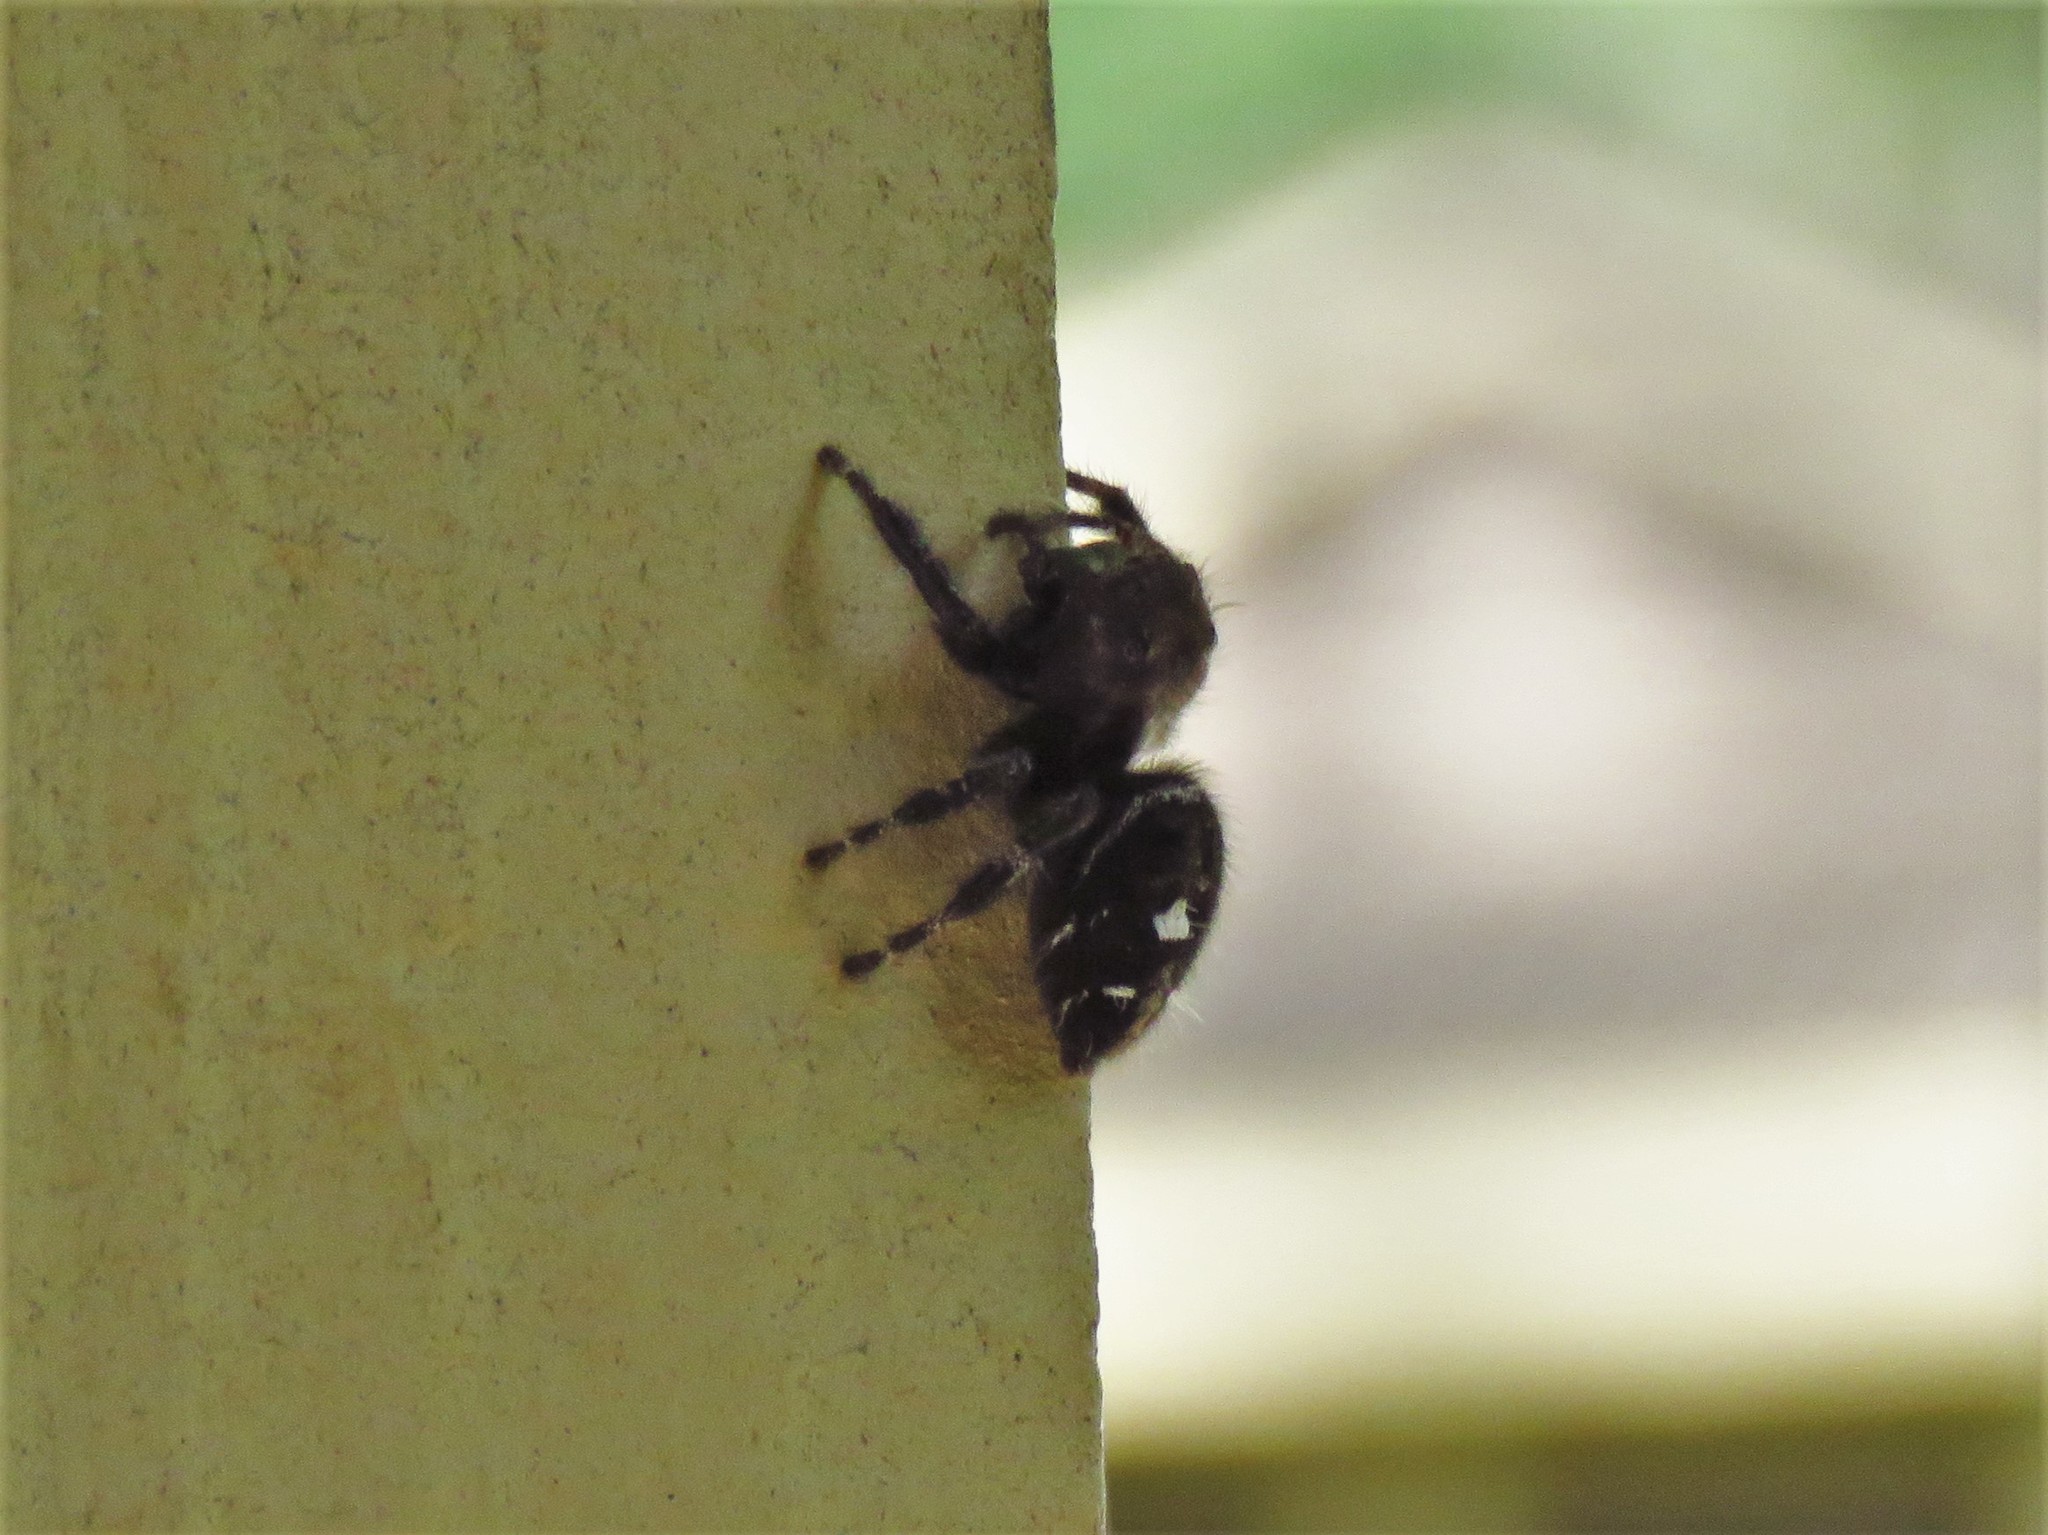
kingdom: Animalia
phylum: Arthropoda
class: Arachnida
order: Araneae
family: Salticidae
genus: Phidippus
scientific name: Phidippus audax
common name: Bold jumper
